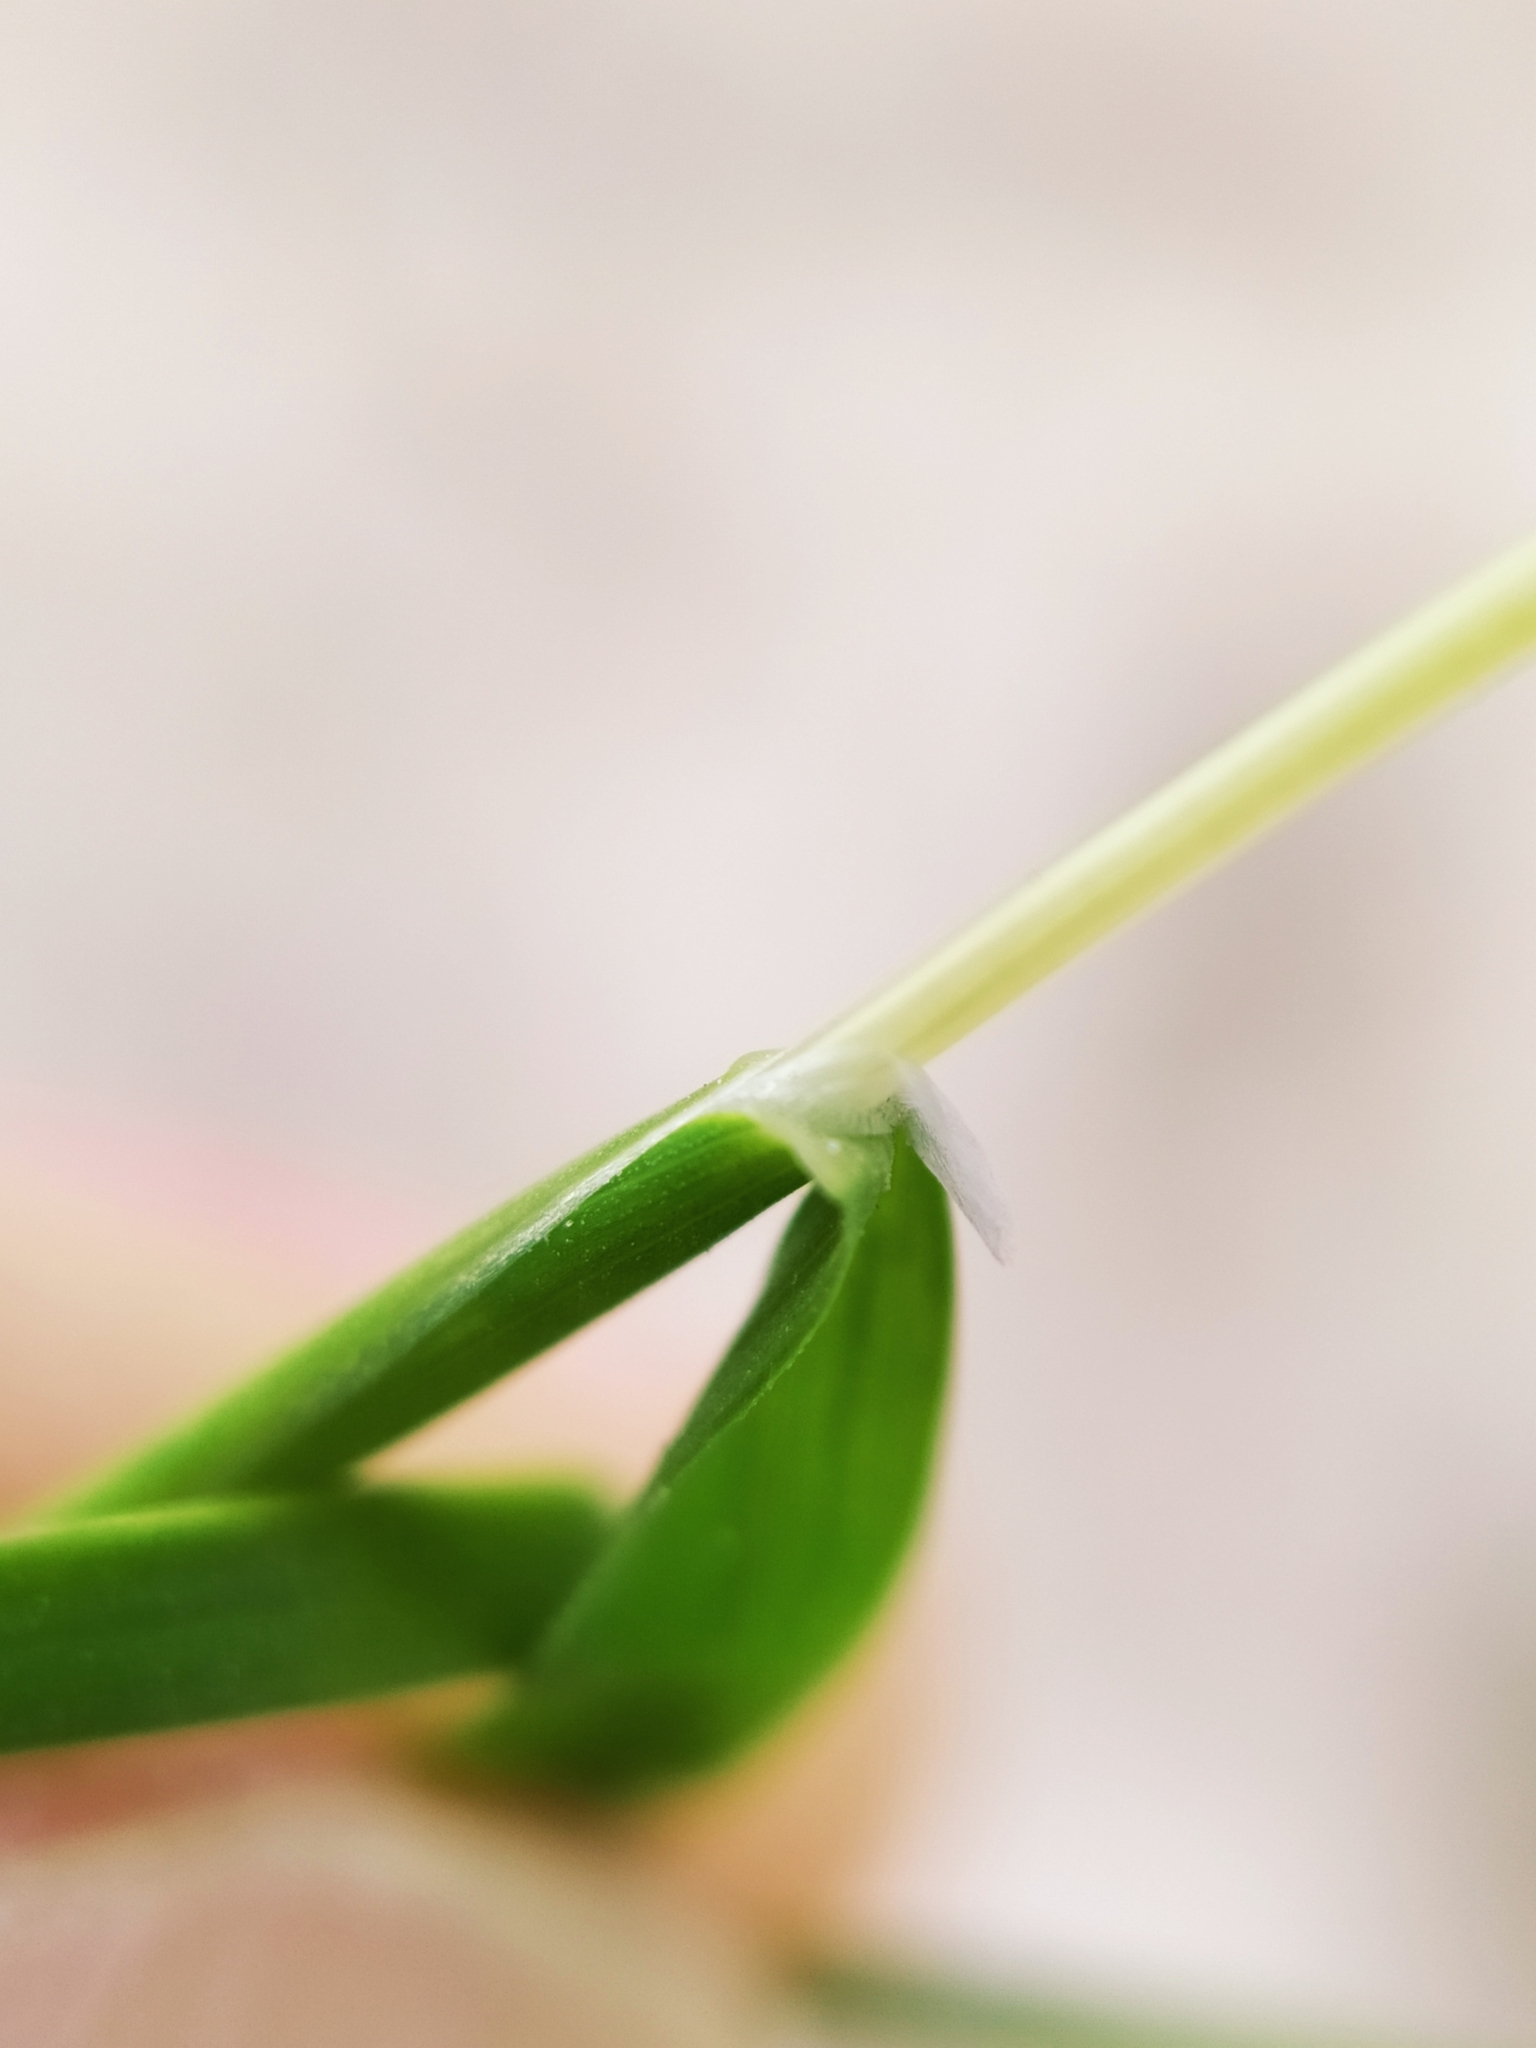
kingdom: Plantae
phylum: Tracheophyta
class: Liliopsida
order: Poales
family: Poaceae
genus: Poa
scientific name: Poa annua
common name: Annual bluegrass
